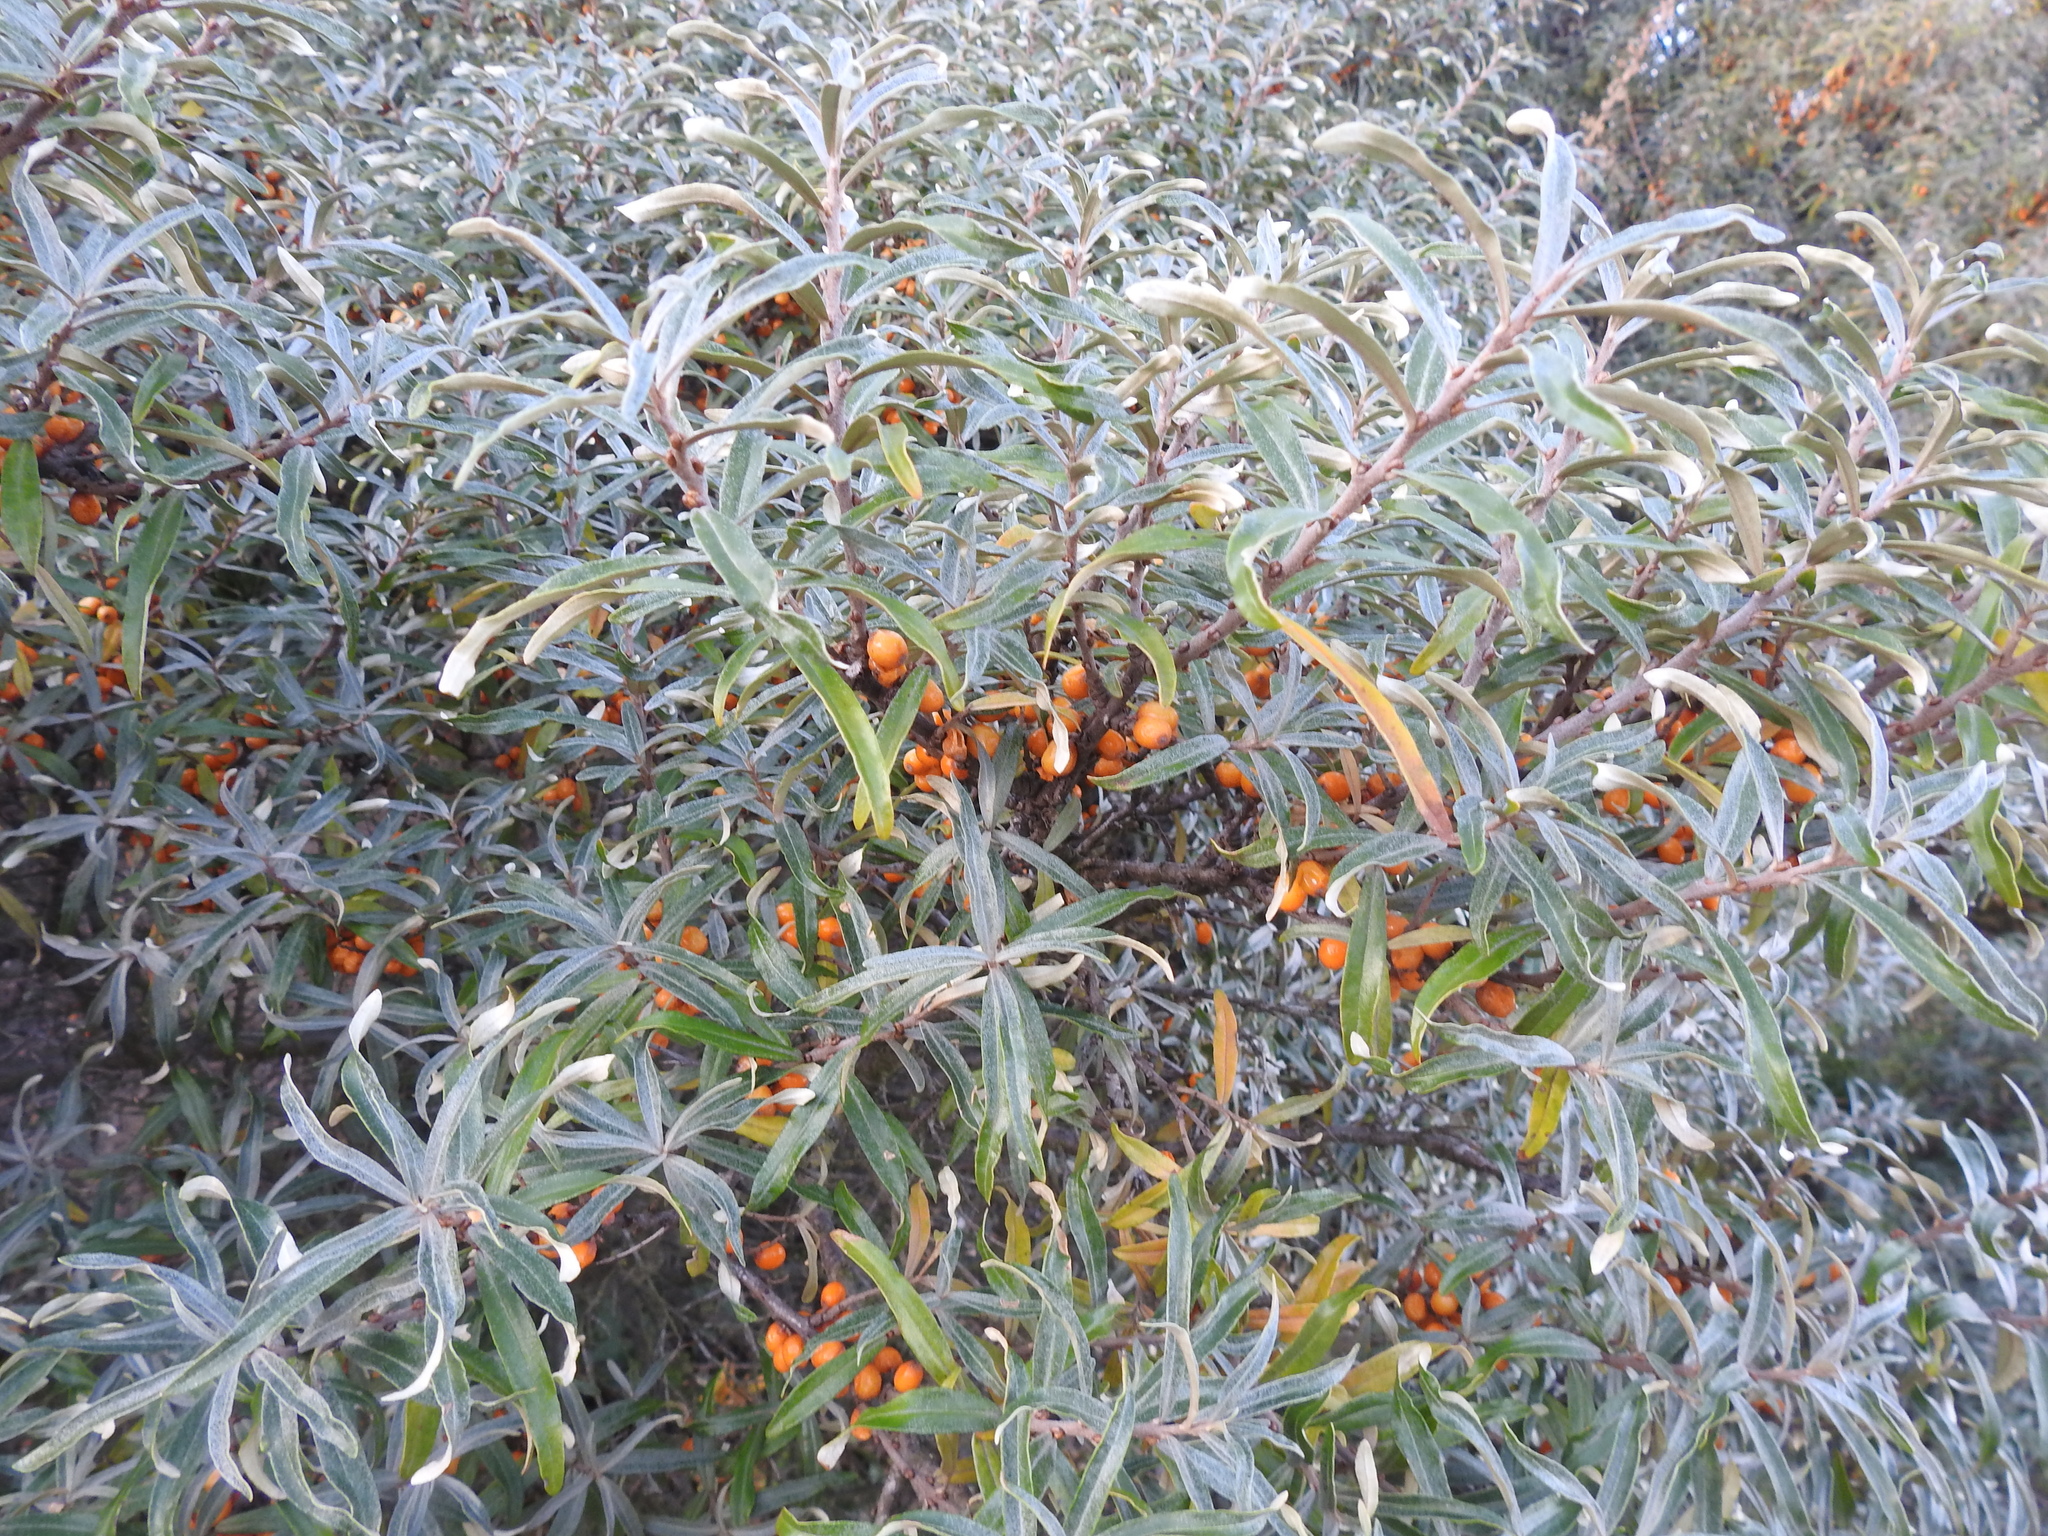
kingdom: Plantae
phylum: Tracheophyta
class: Magnoliopsida
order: Rosales
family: Elaeagnaceae
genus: Hippophae
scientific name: Hippophae rhamnoides
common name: Sea-buckthorn
